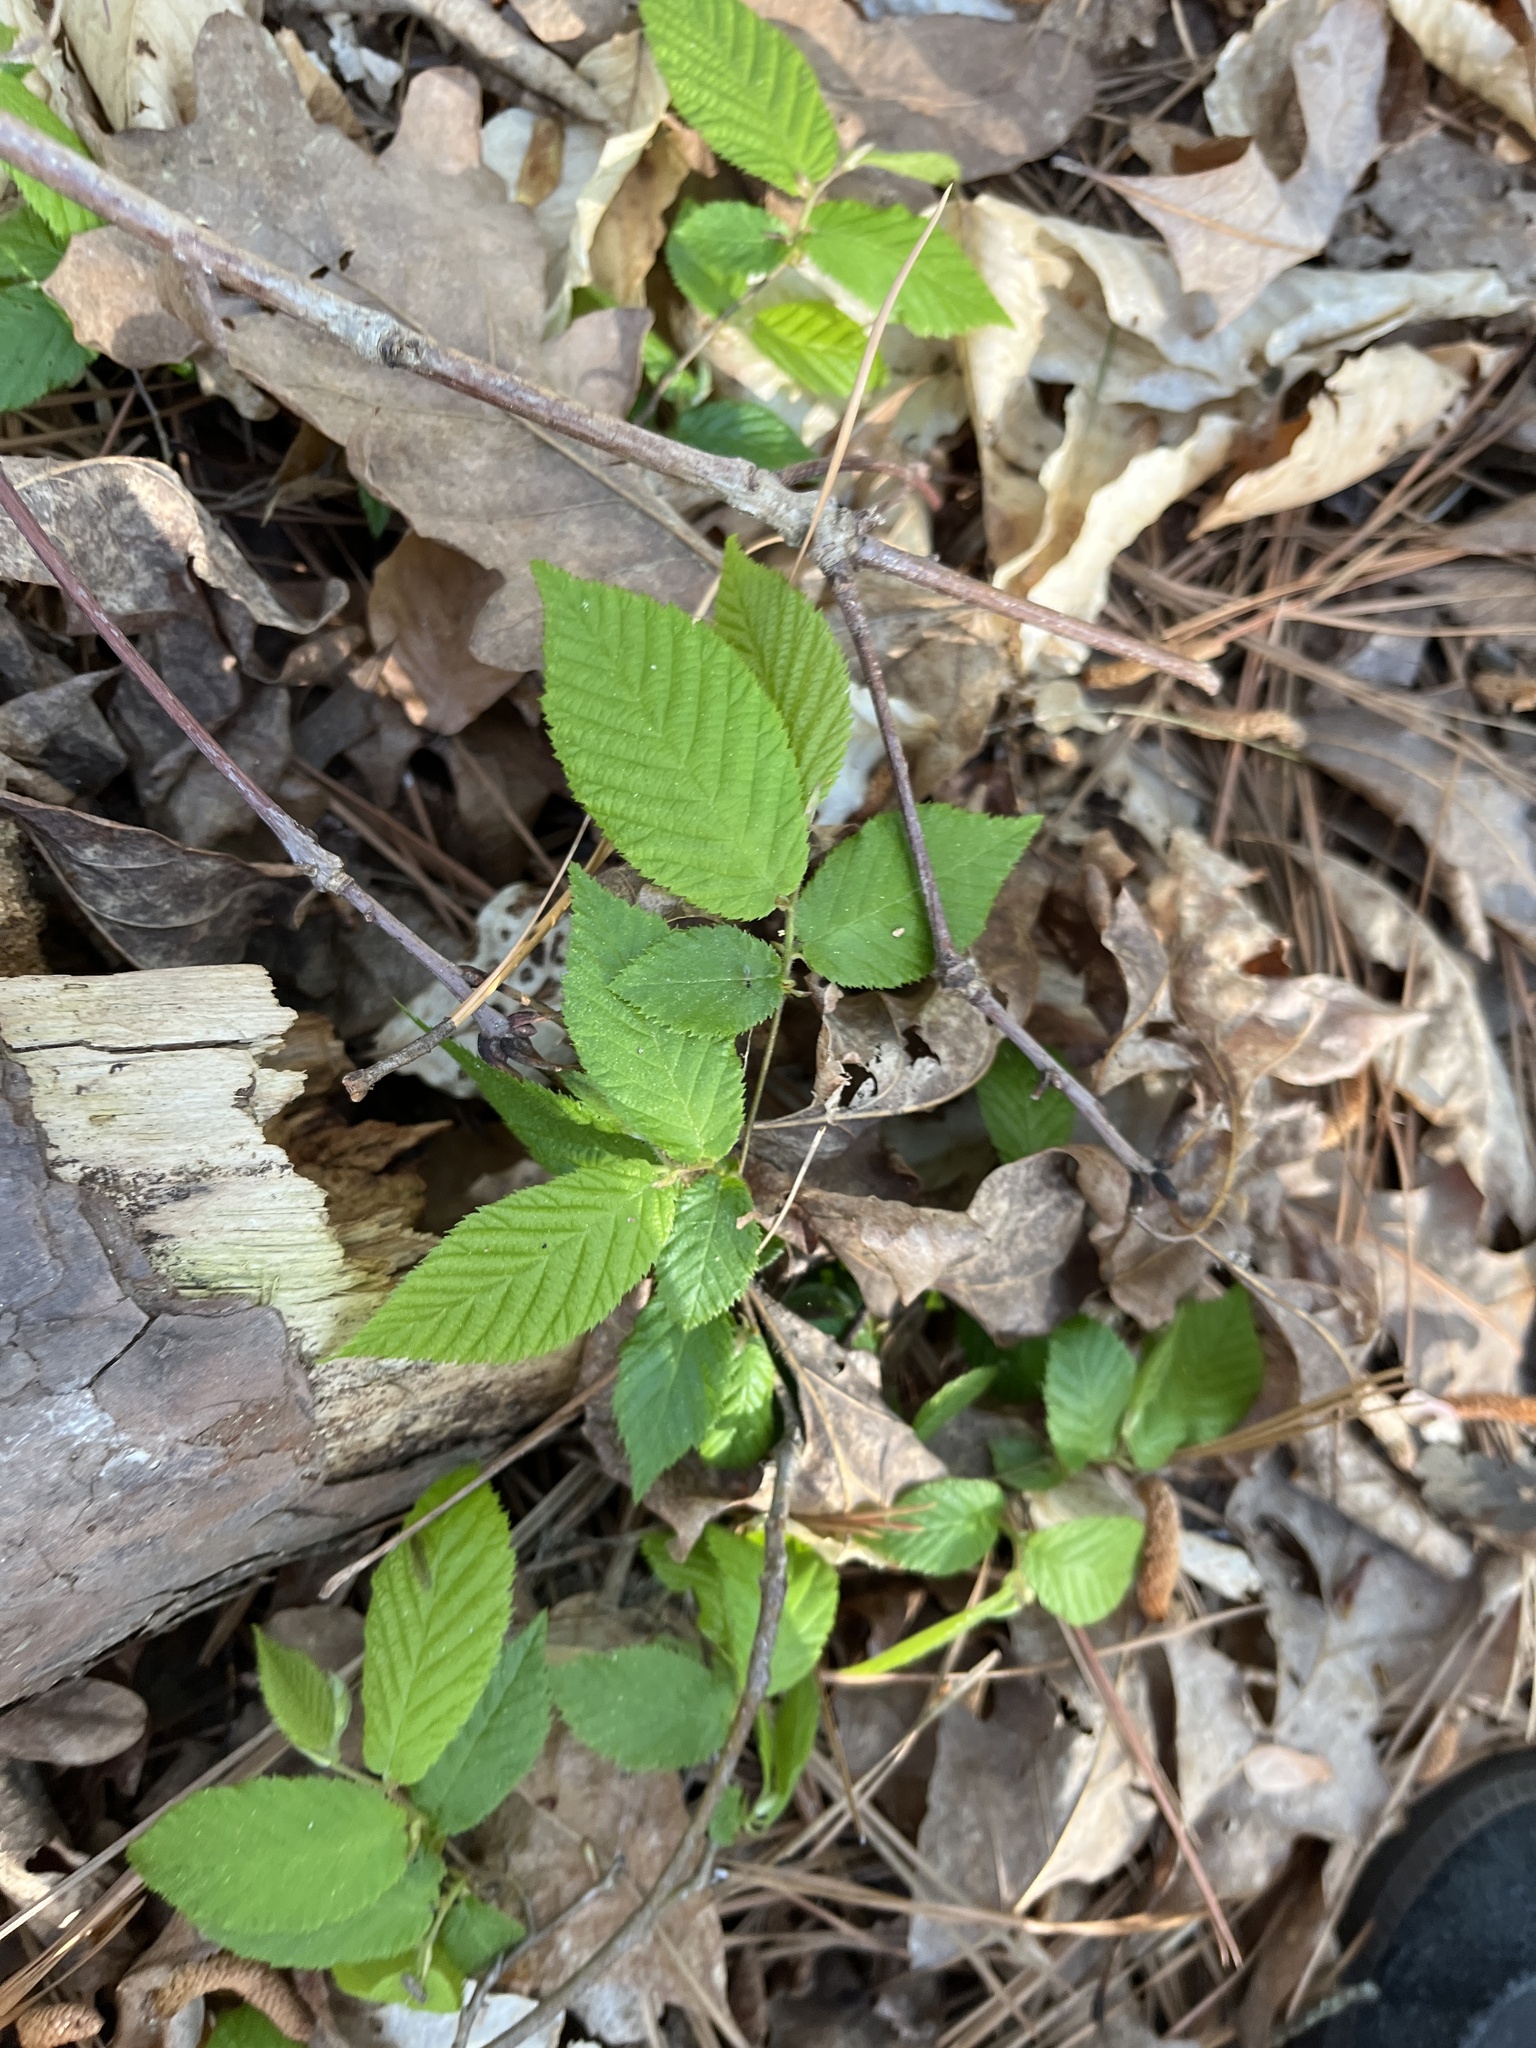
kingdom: Plantae
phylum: Tracheophyta
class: Magnoliopsida
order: Fagales
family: Betulaceae
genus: Ostrya
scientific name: Ostrya virginiana
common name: Ironwood
